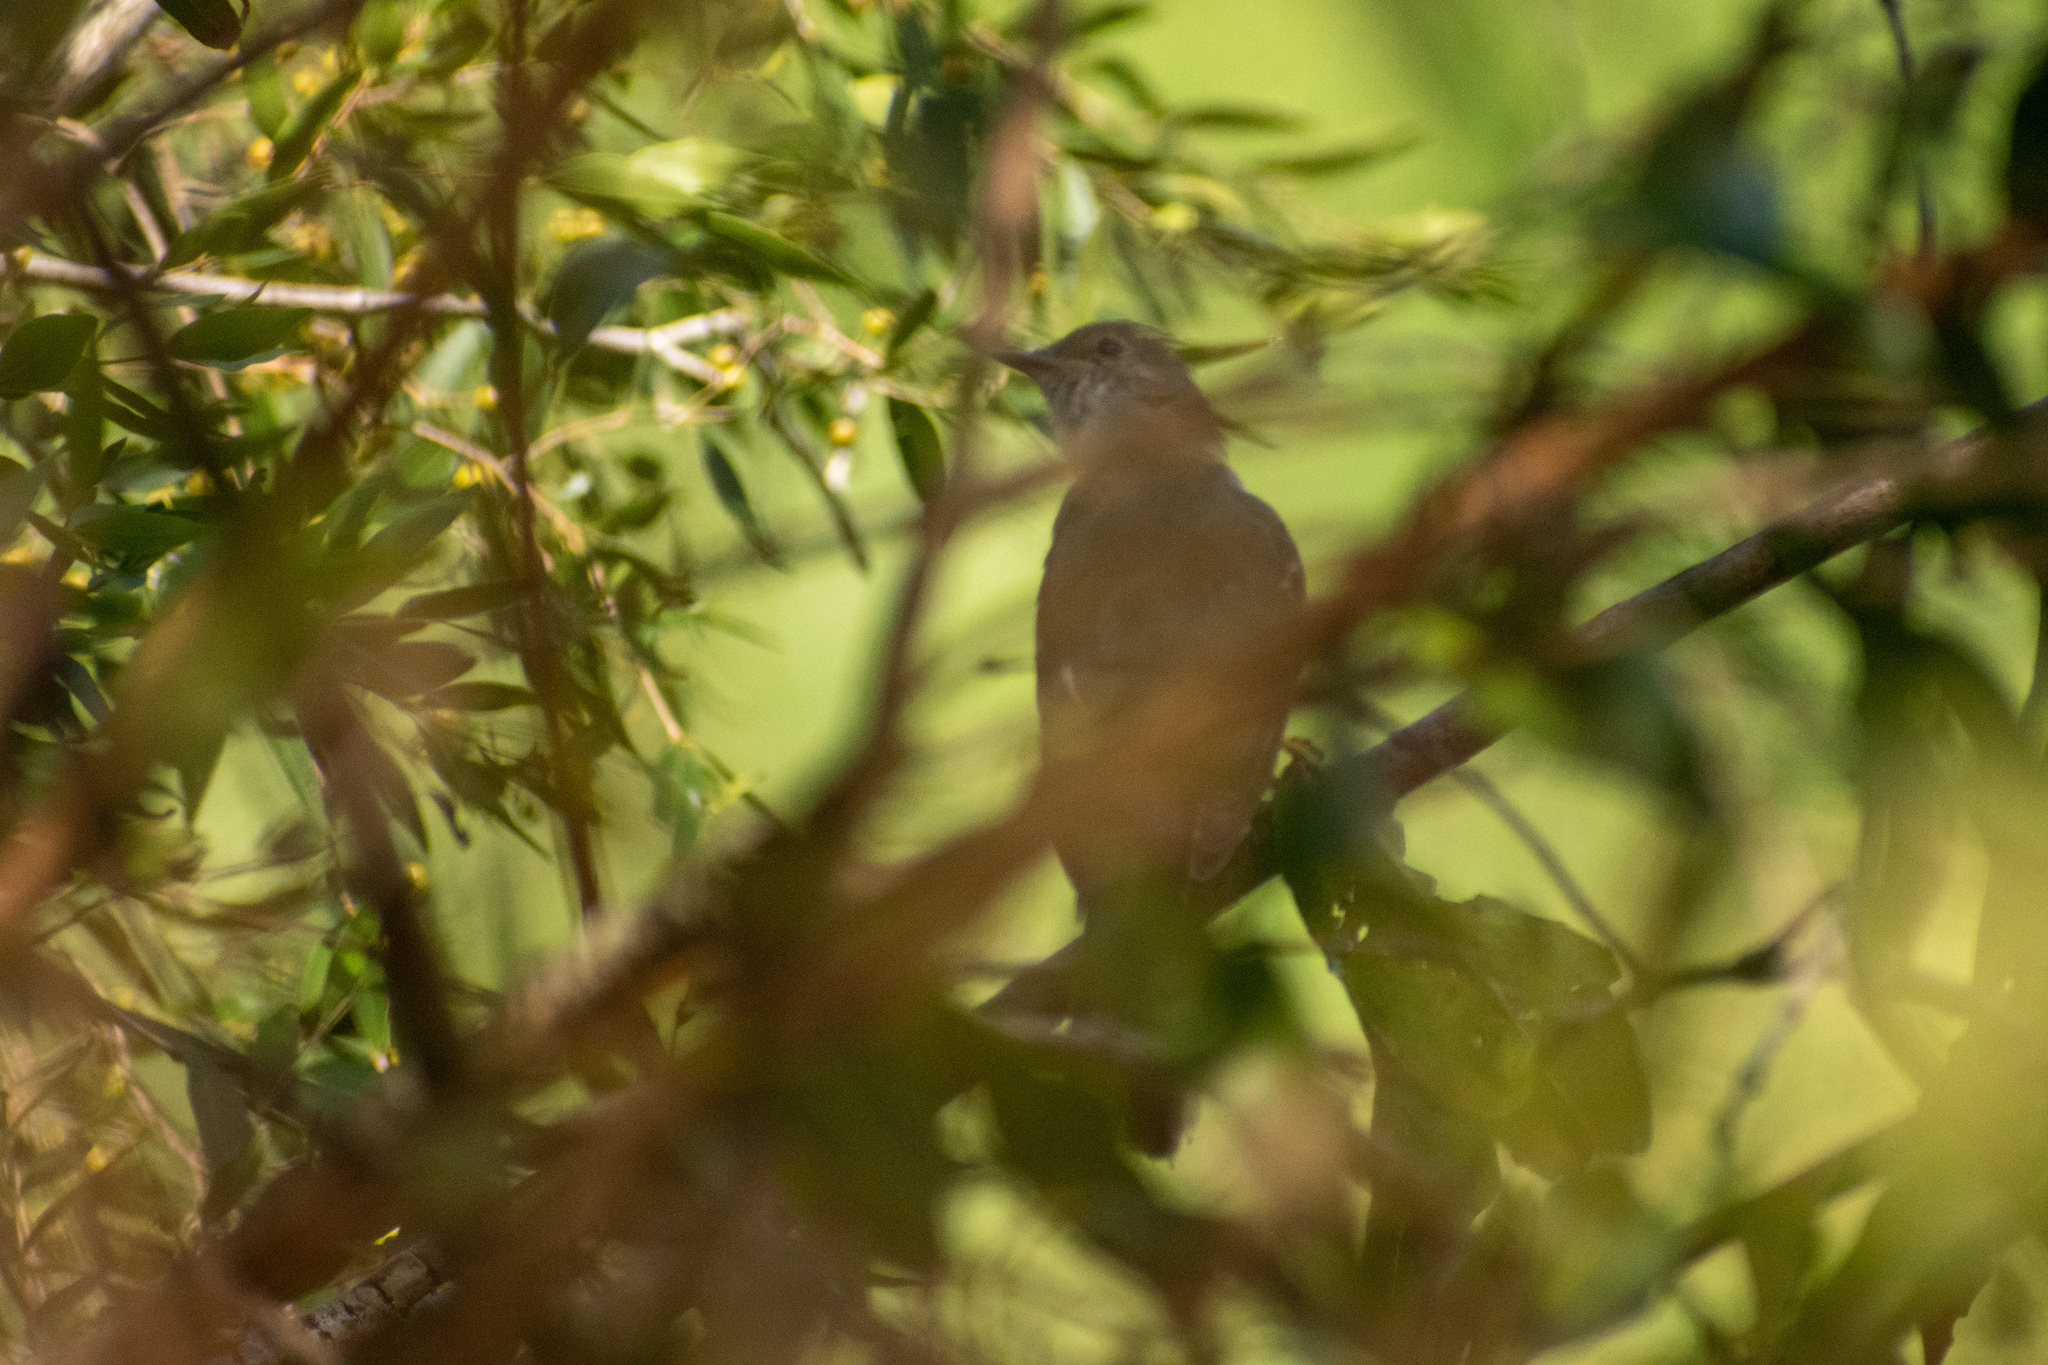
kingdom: Animalia
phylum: Chordata
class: Aves
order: Passeriformes
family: Tyrannidae
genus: Elaenia
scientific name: Elaenia flavogaster
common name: Yellow-bellied elaenia
